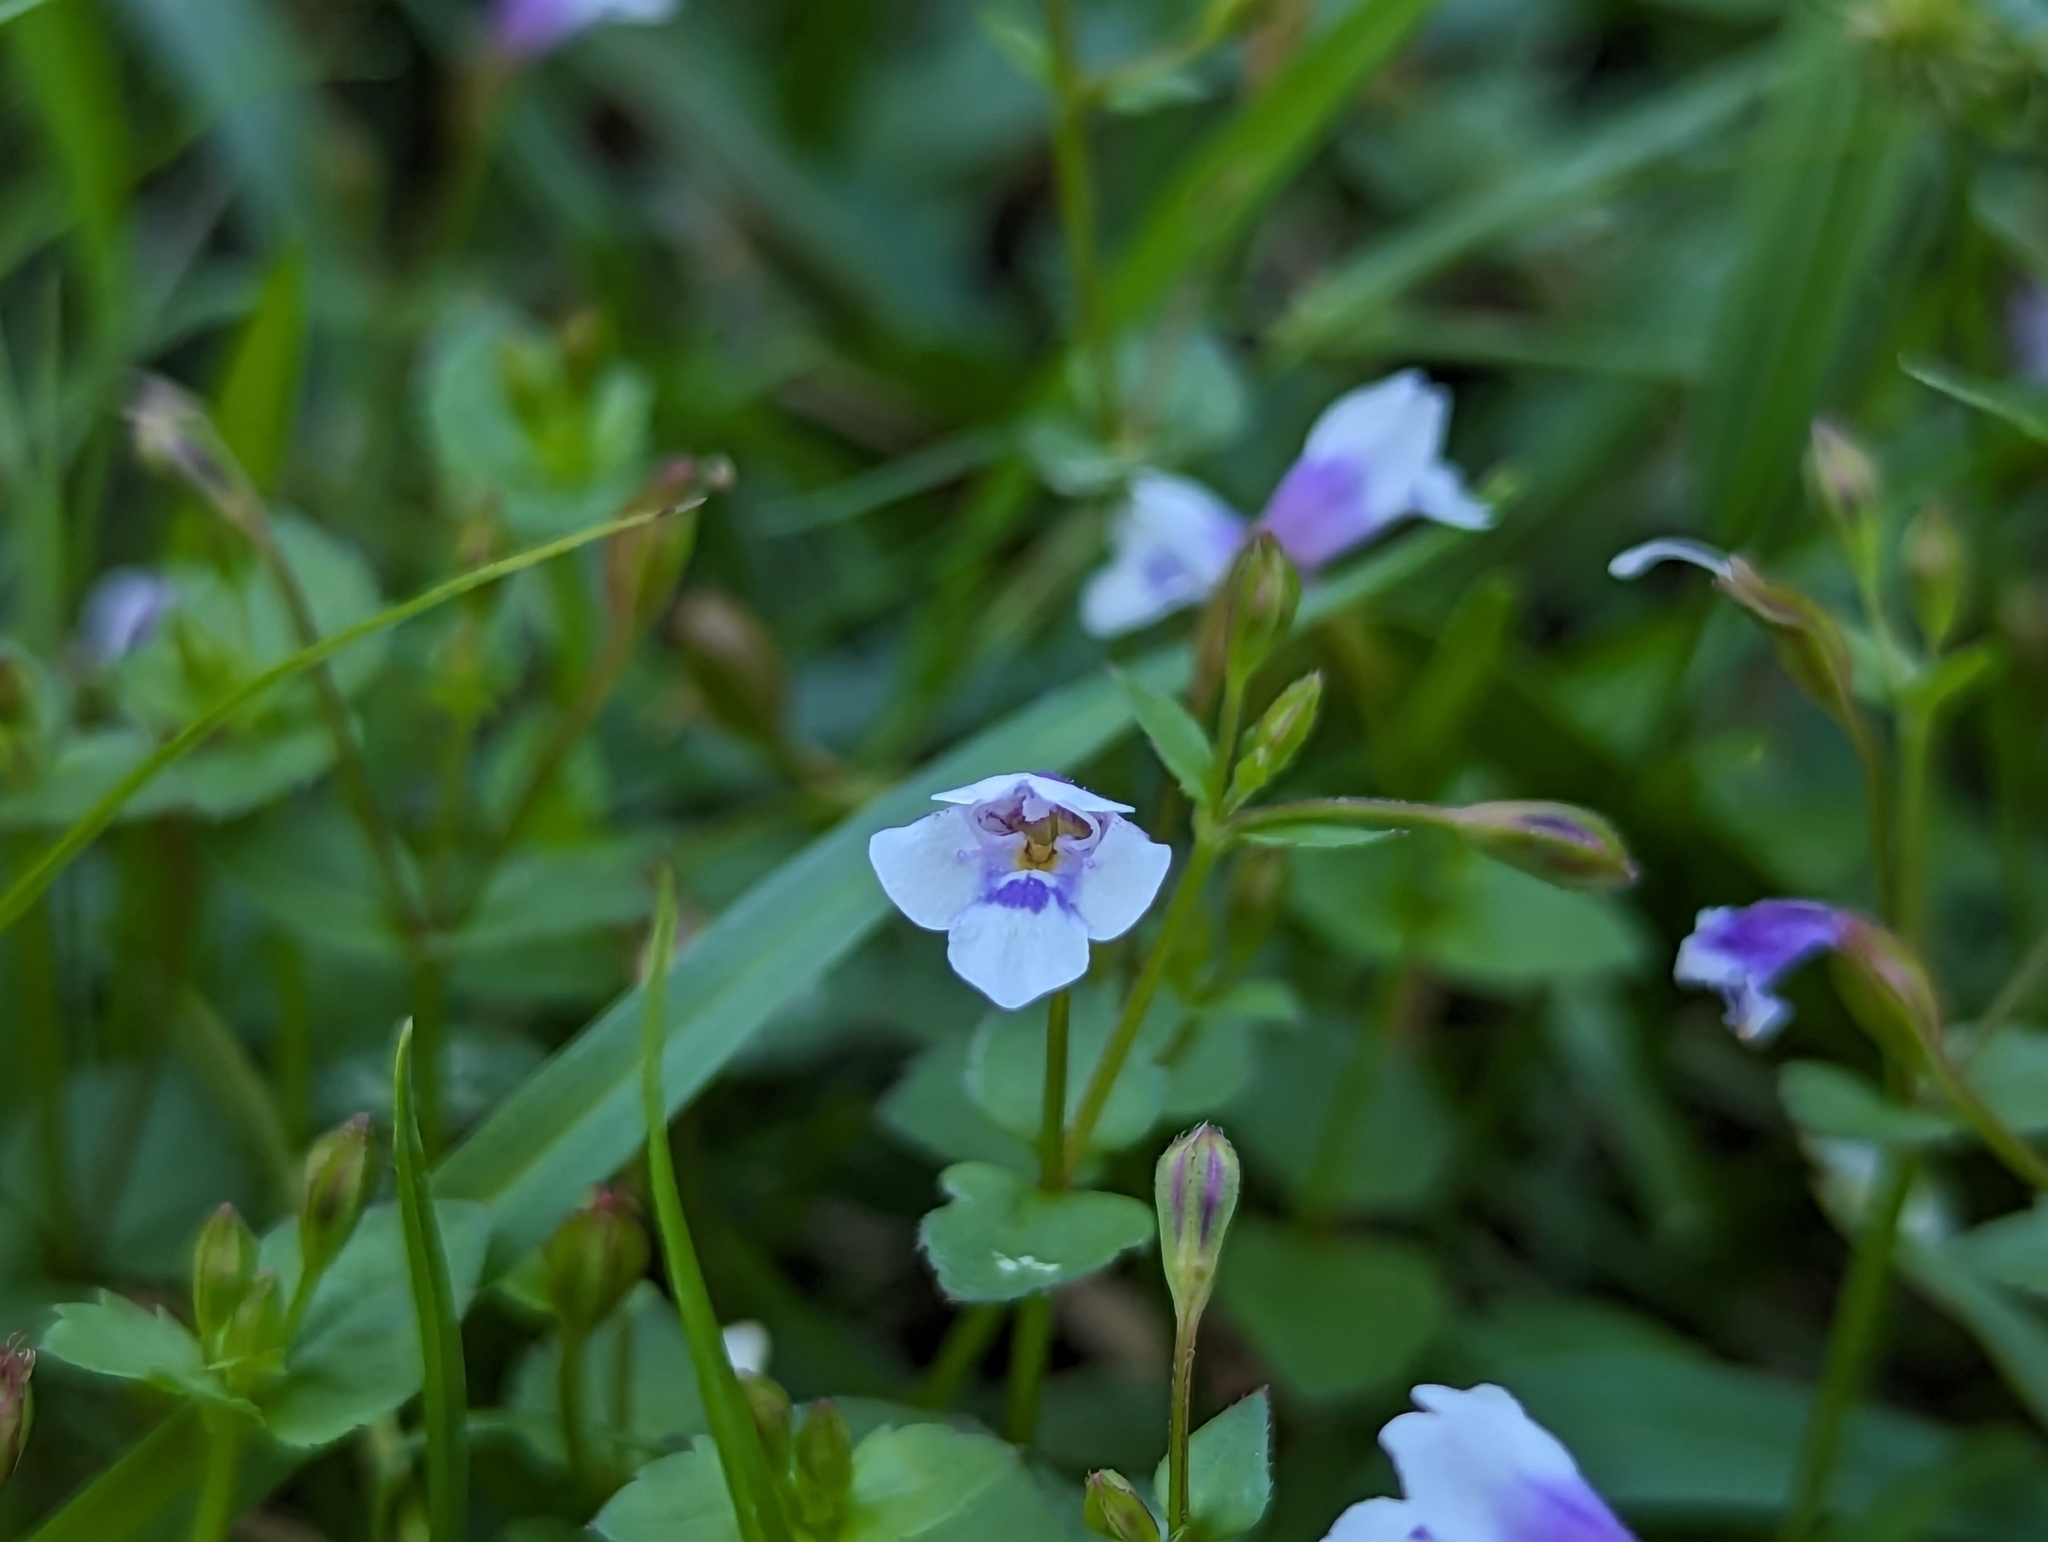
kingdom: Plantae
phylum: Tracheophyta
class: Magnoliopsida
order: Lamiales
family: Linderniaceae
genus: Torenia
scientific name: Torenia crustacea
